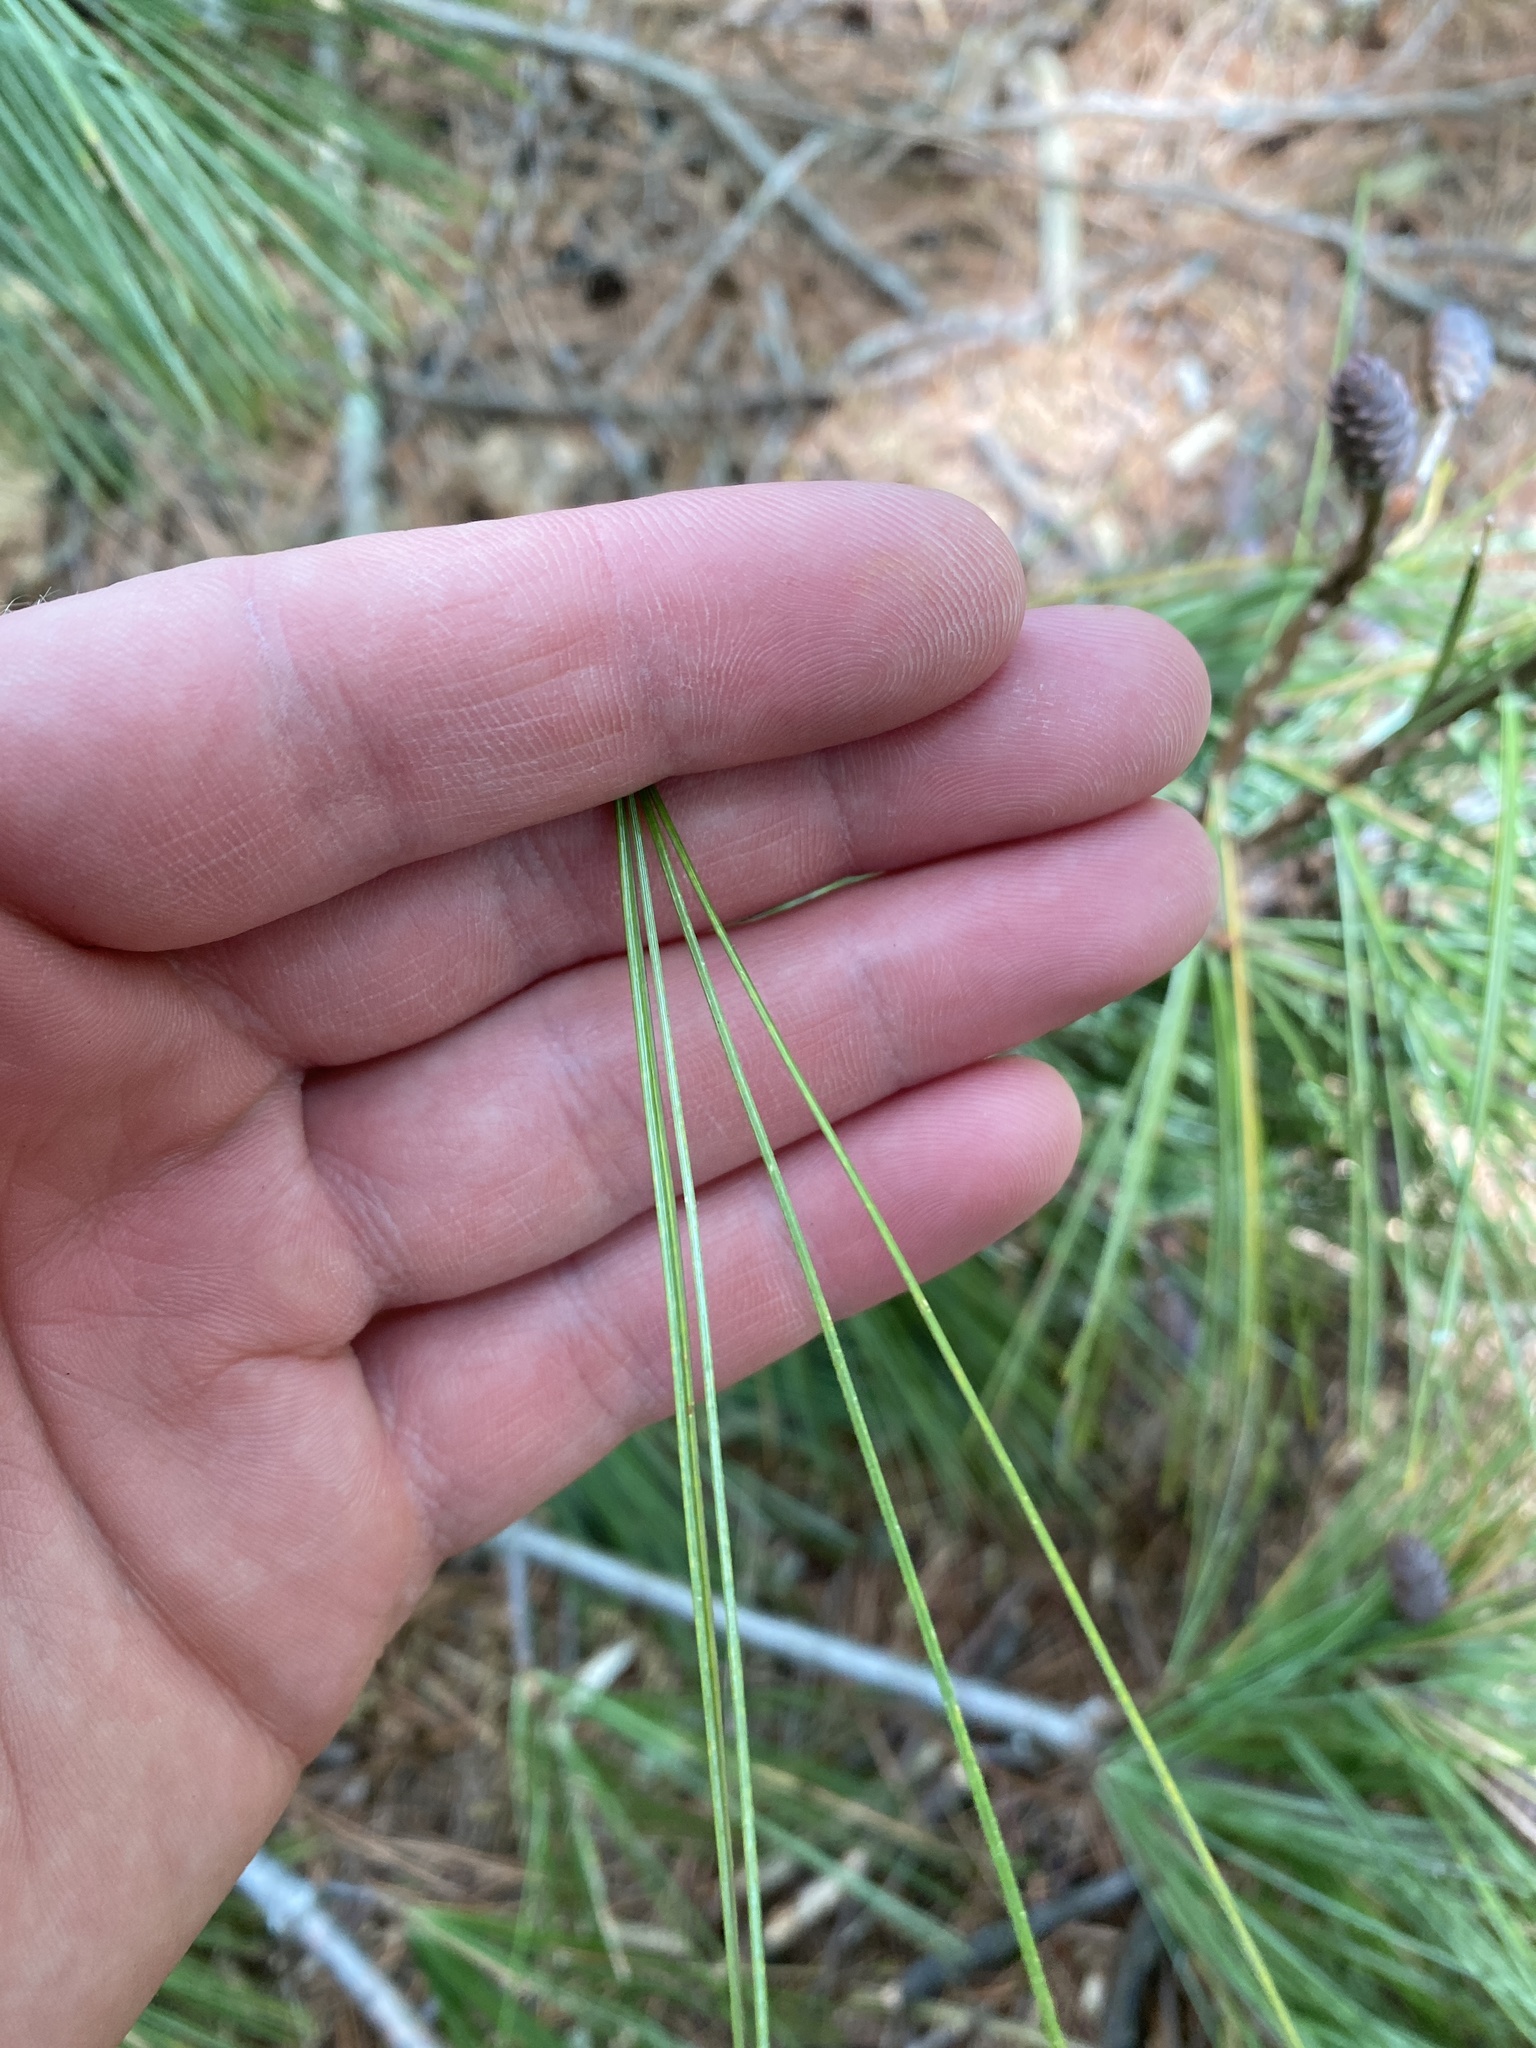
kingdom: Plantae
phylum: Tracheophyta
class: Pinopsida
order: Pinales
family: Pinaceae
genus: Pinus
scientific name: Pinus strobus
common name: Weymouth pine
